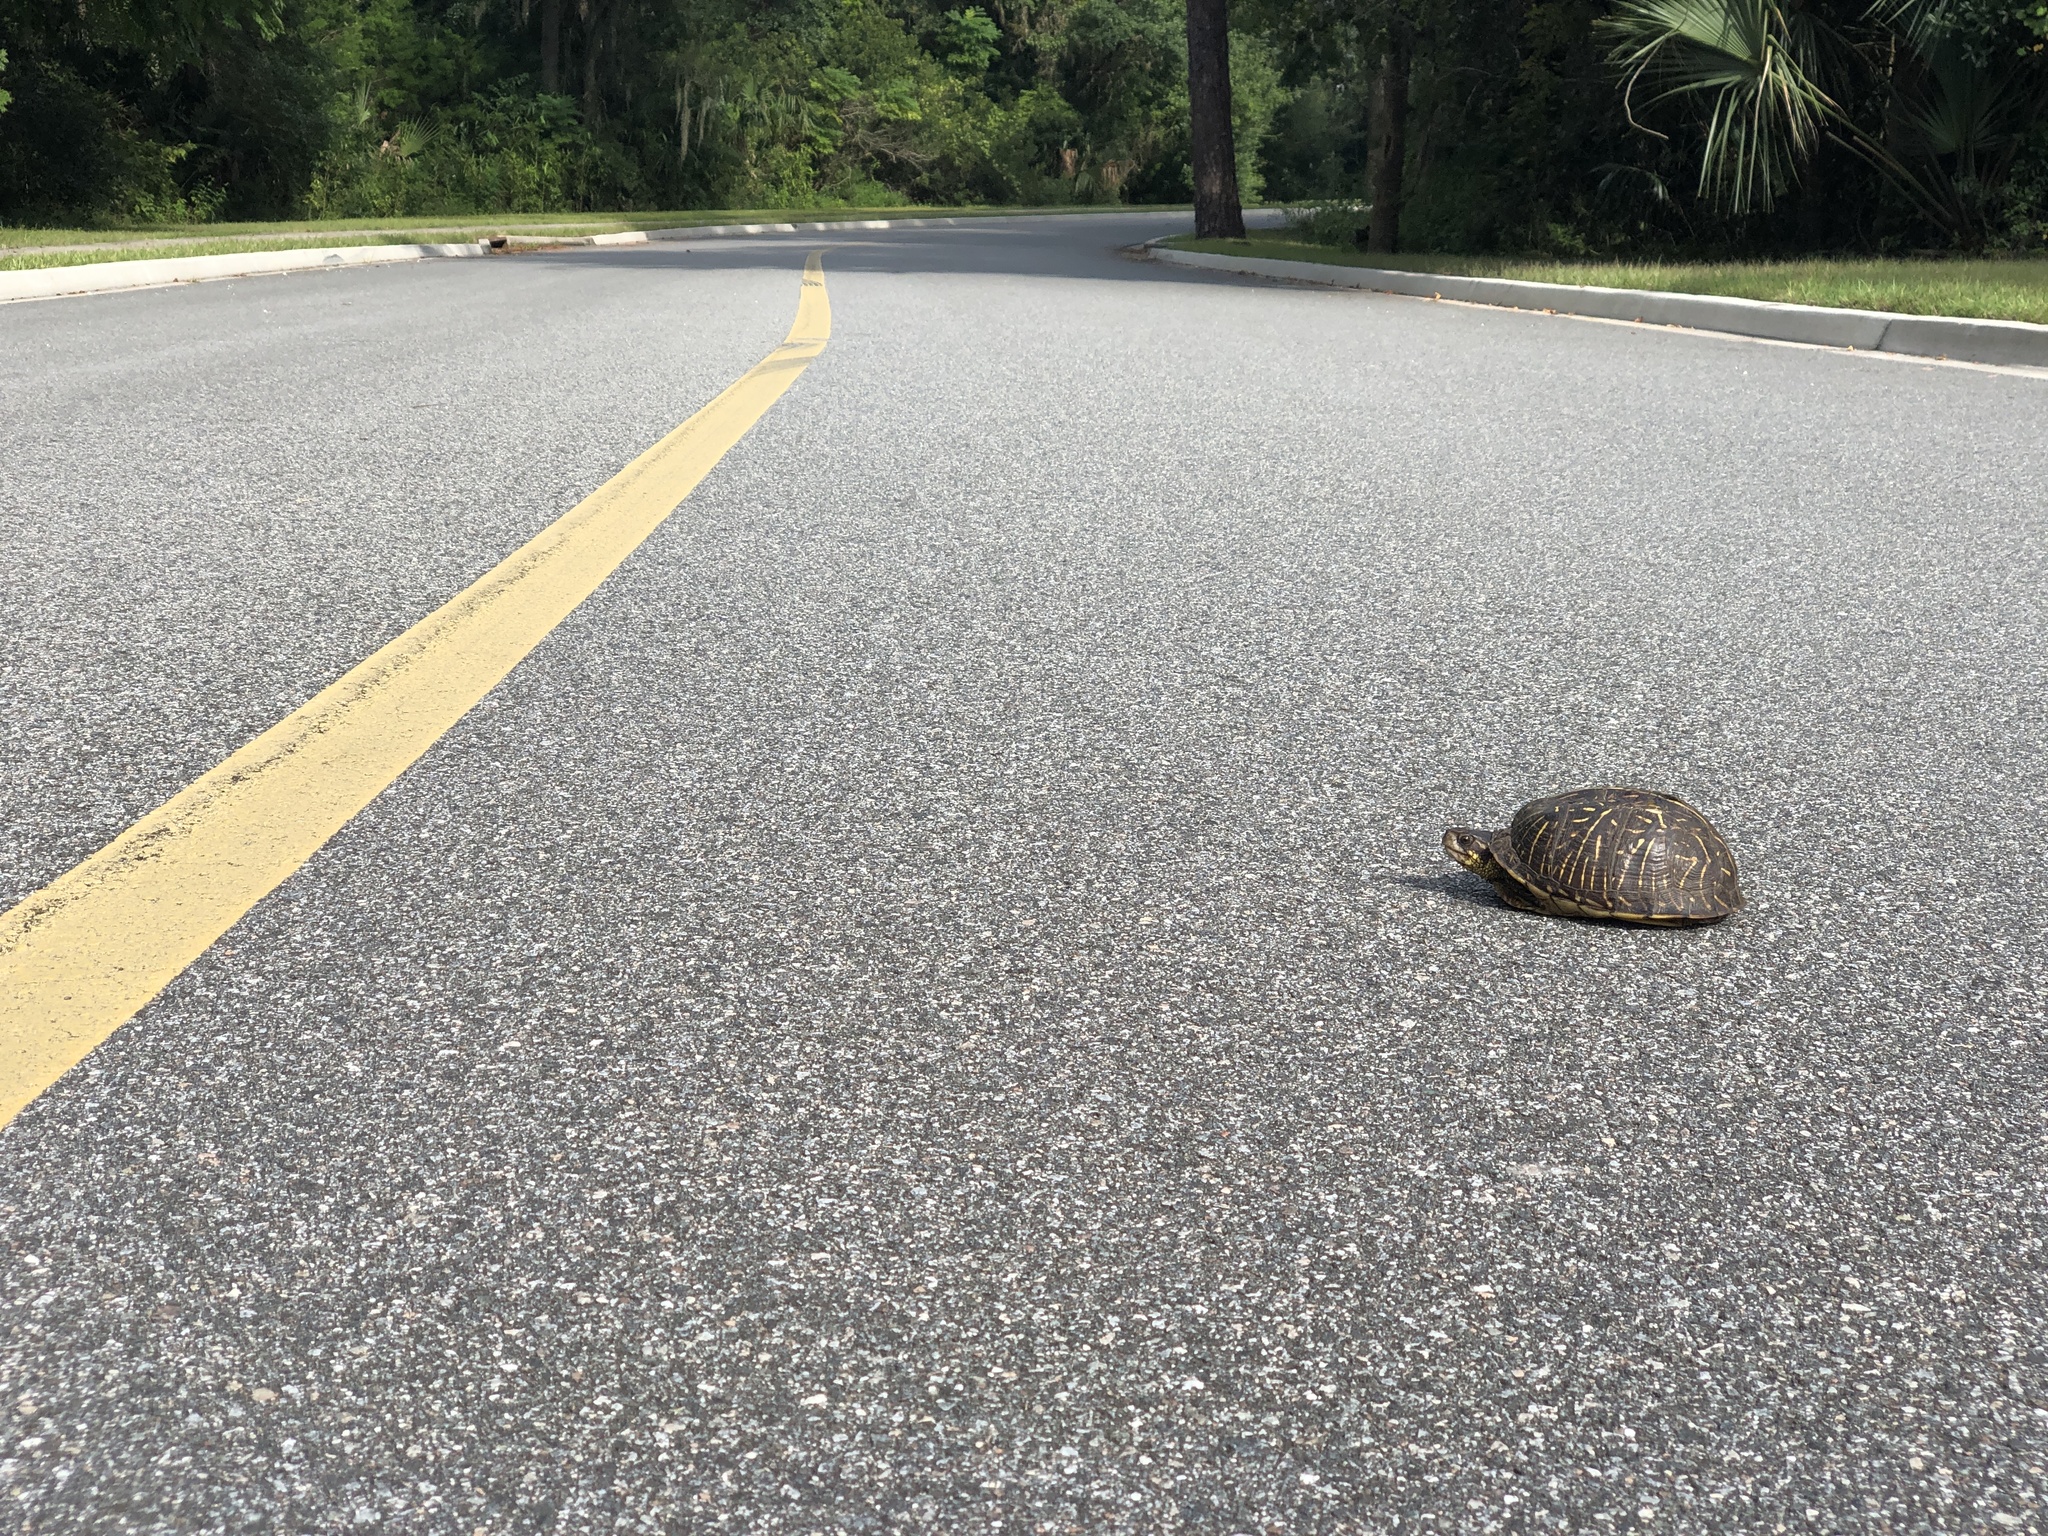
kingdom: Animalia
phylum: Chordata
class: Testudines
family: Emydidae
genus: Terrapene
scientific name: Terrapene carolina
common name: Common box turtle
